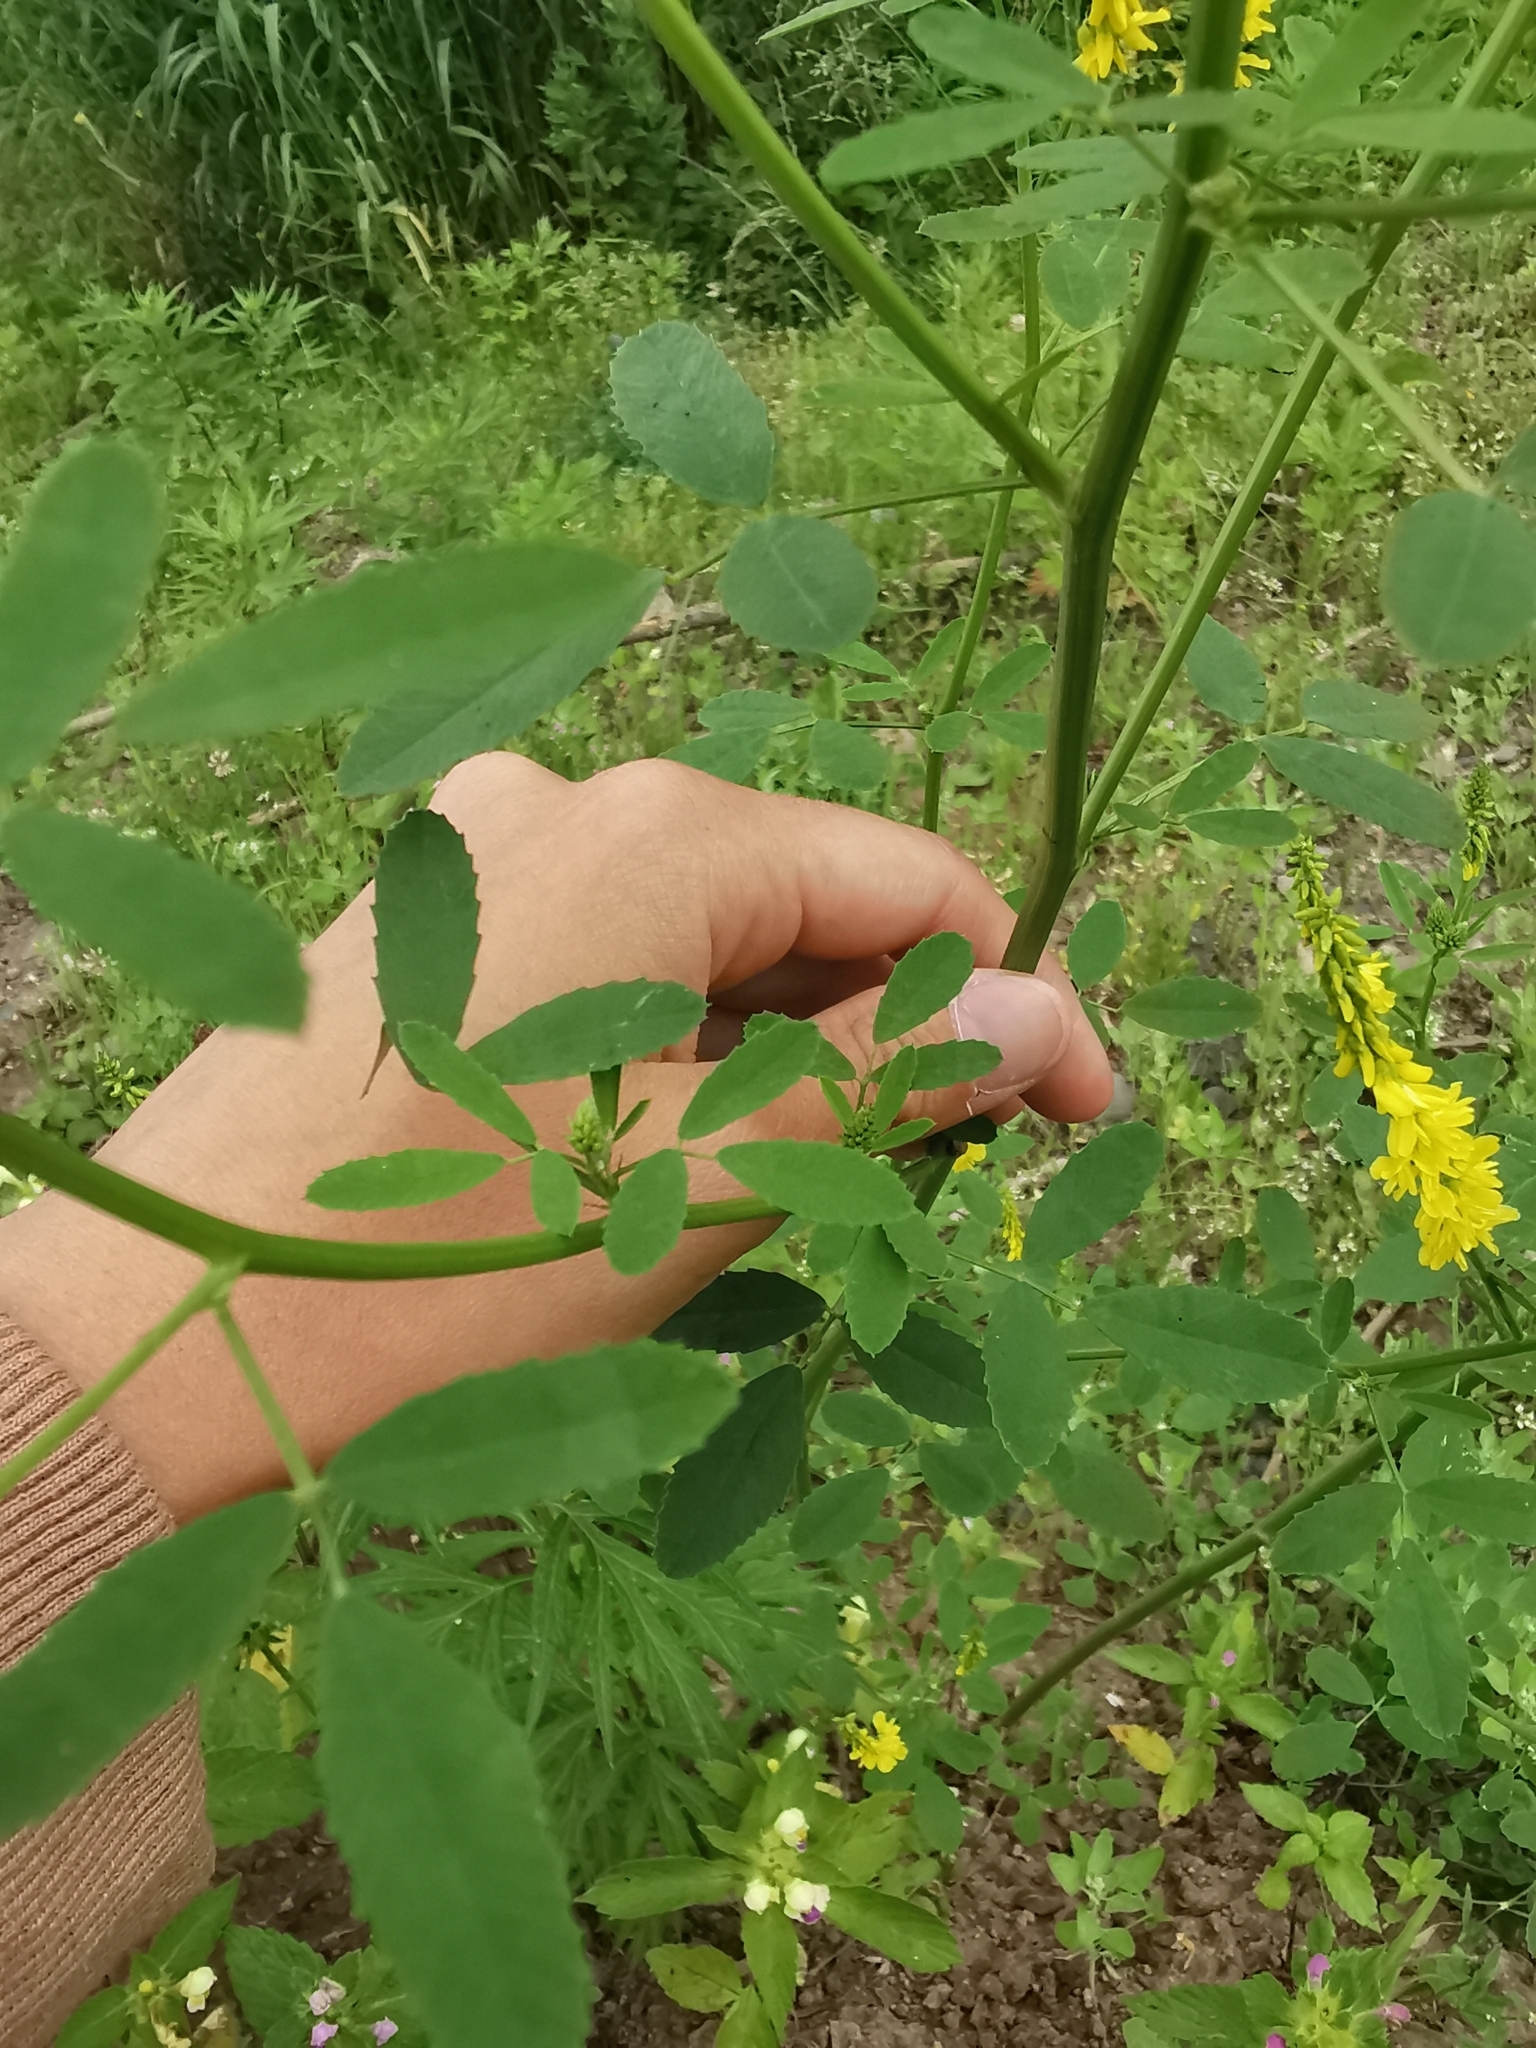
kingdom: Plantae
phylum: Tracheophyta
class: Magnoliopsida
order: Fabales
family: Fabaceae
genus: Melilotus
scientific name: Melilotus officinalis
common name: Sweetclover
